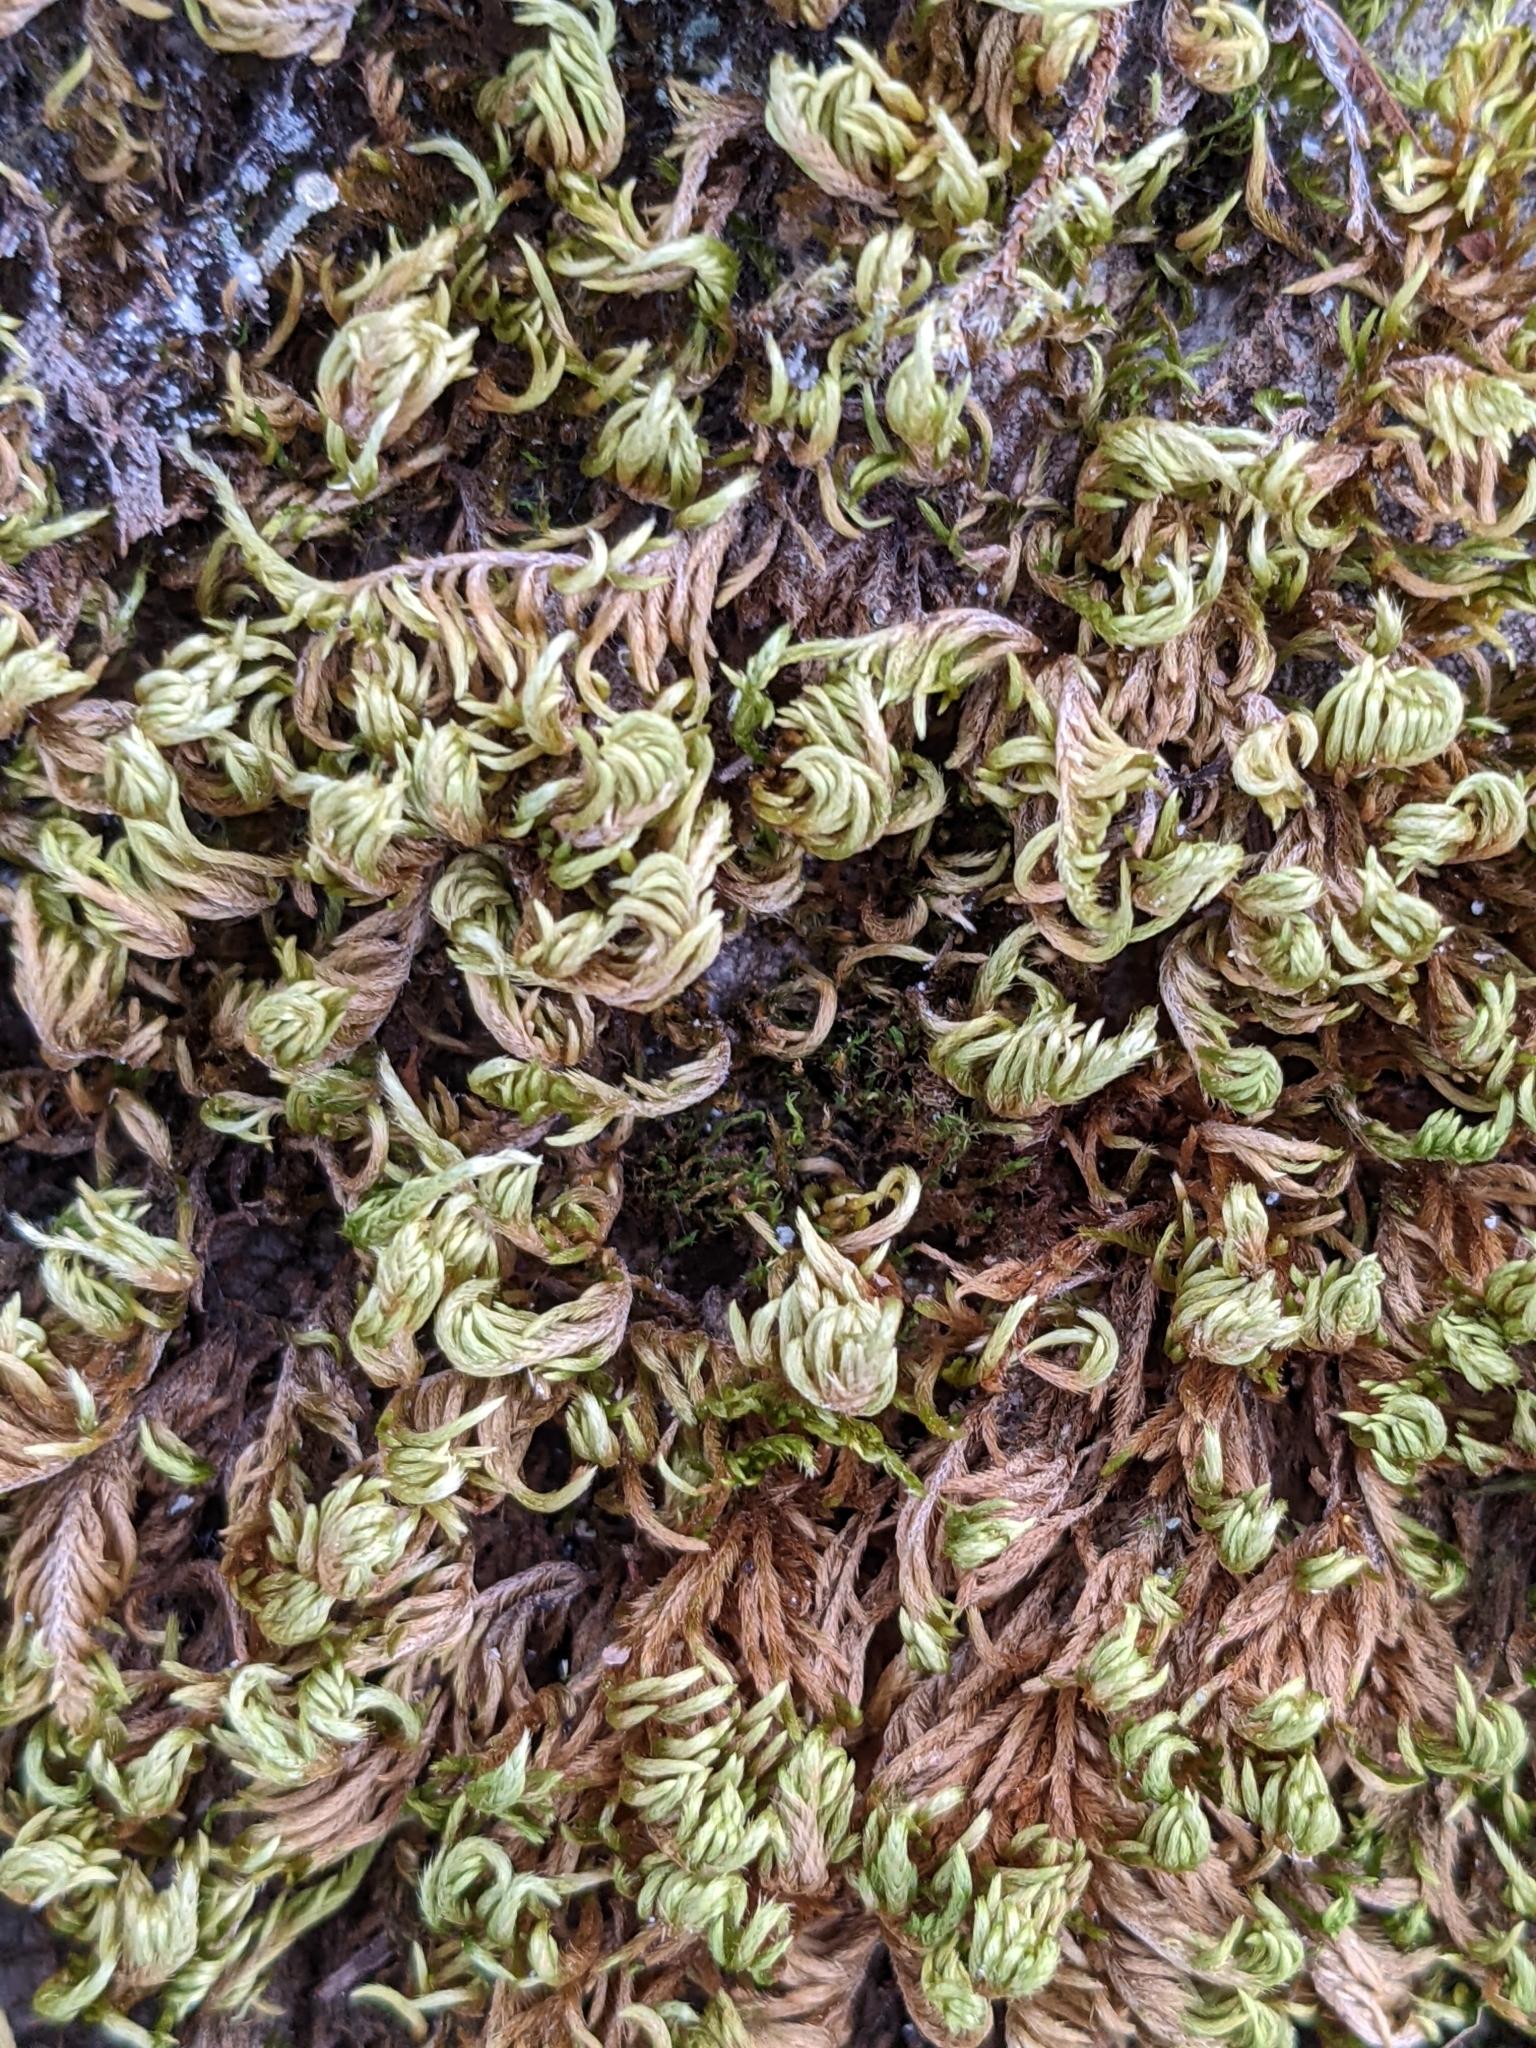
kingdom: Plantae
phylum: Bryophyta
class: Bryopsida
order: Hypnales
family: Cryphaeaceae
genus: Dendroalsia
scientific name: Dendroalsia abietina
